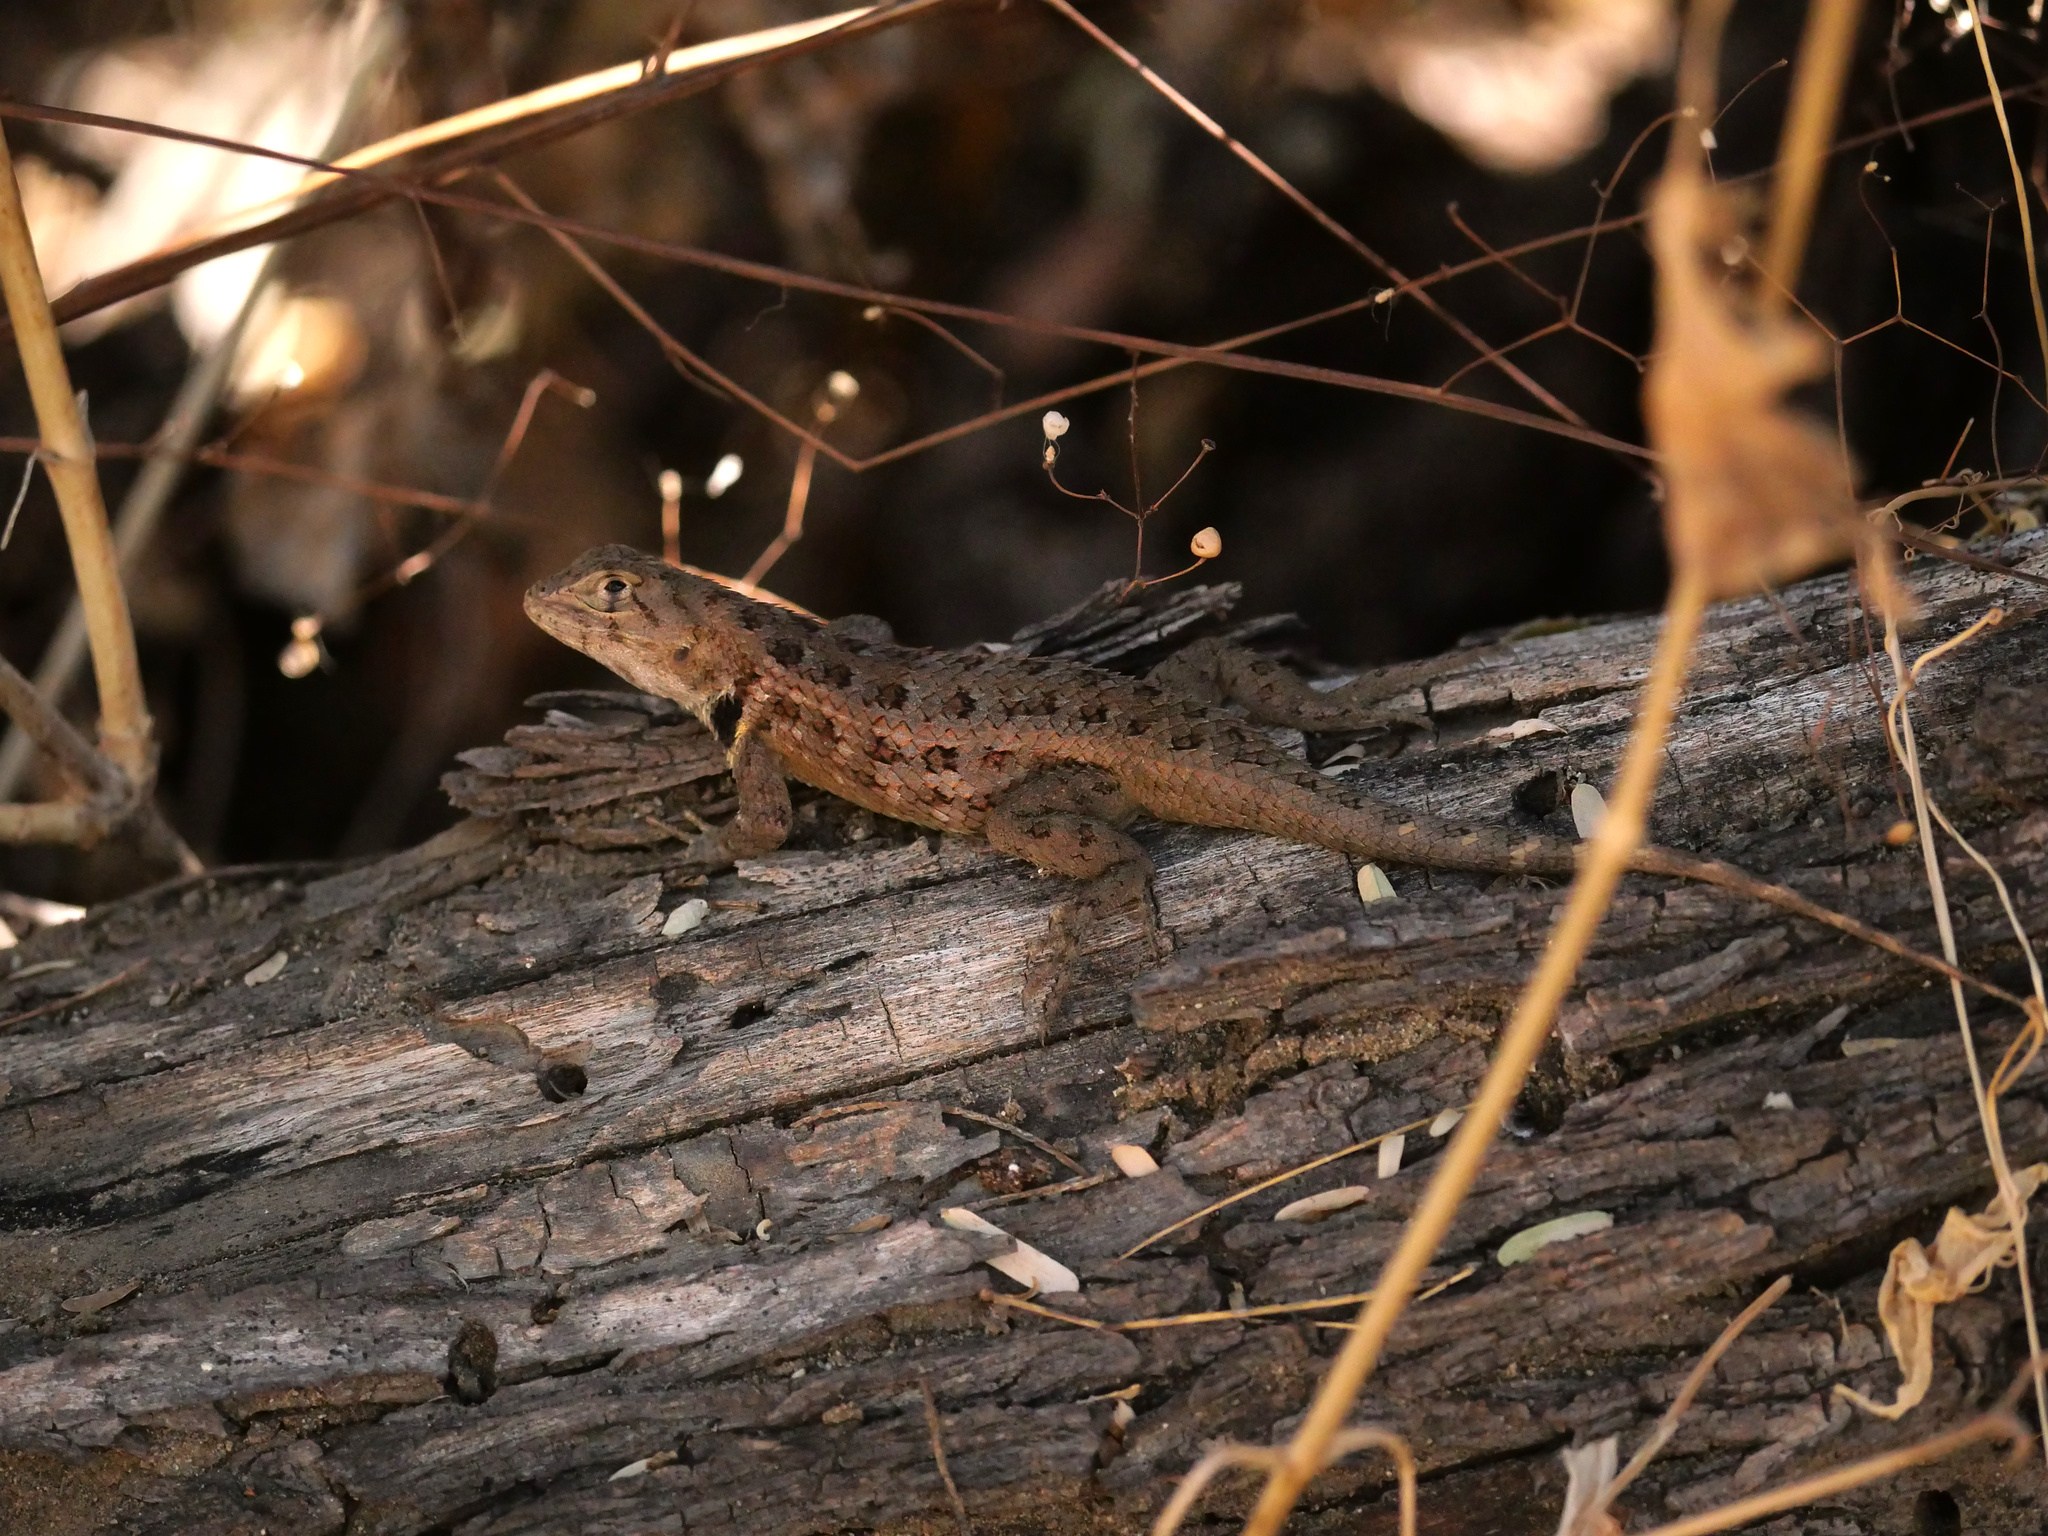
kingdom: Animalia
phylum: Chordata
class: Squamata
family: Phrynosomatidae
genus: Sceloporus
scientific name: Sceloporus zosteromus
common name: Baja spiny lizard
